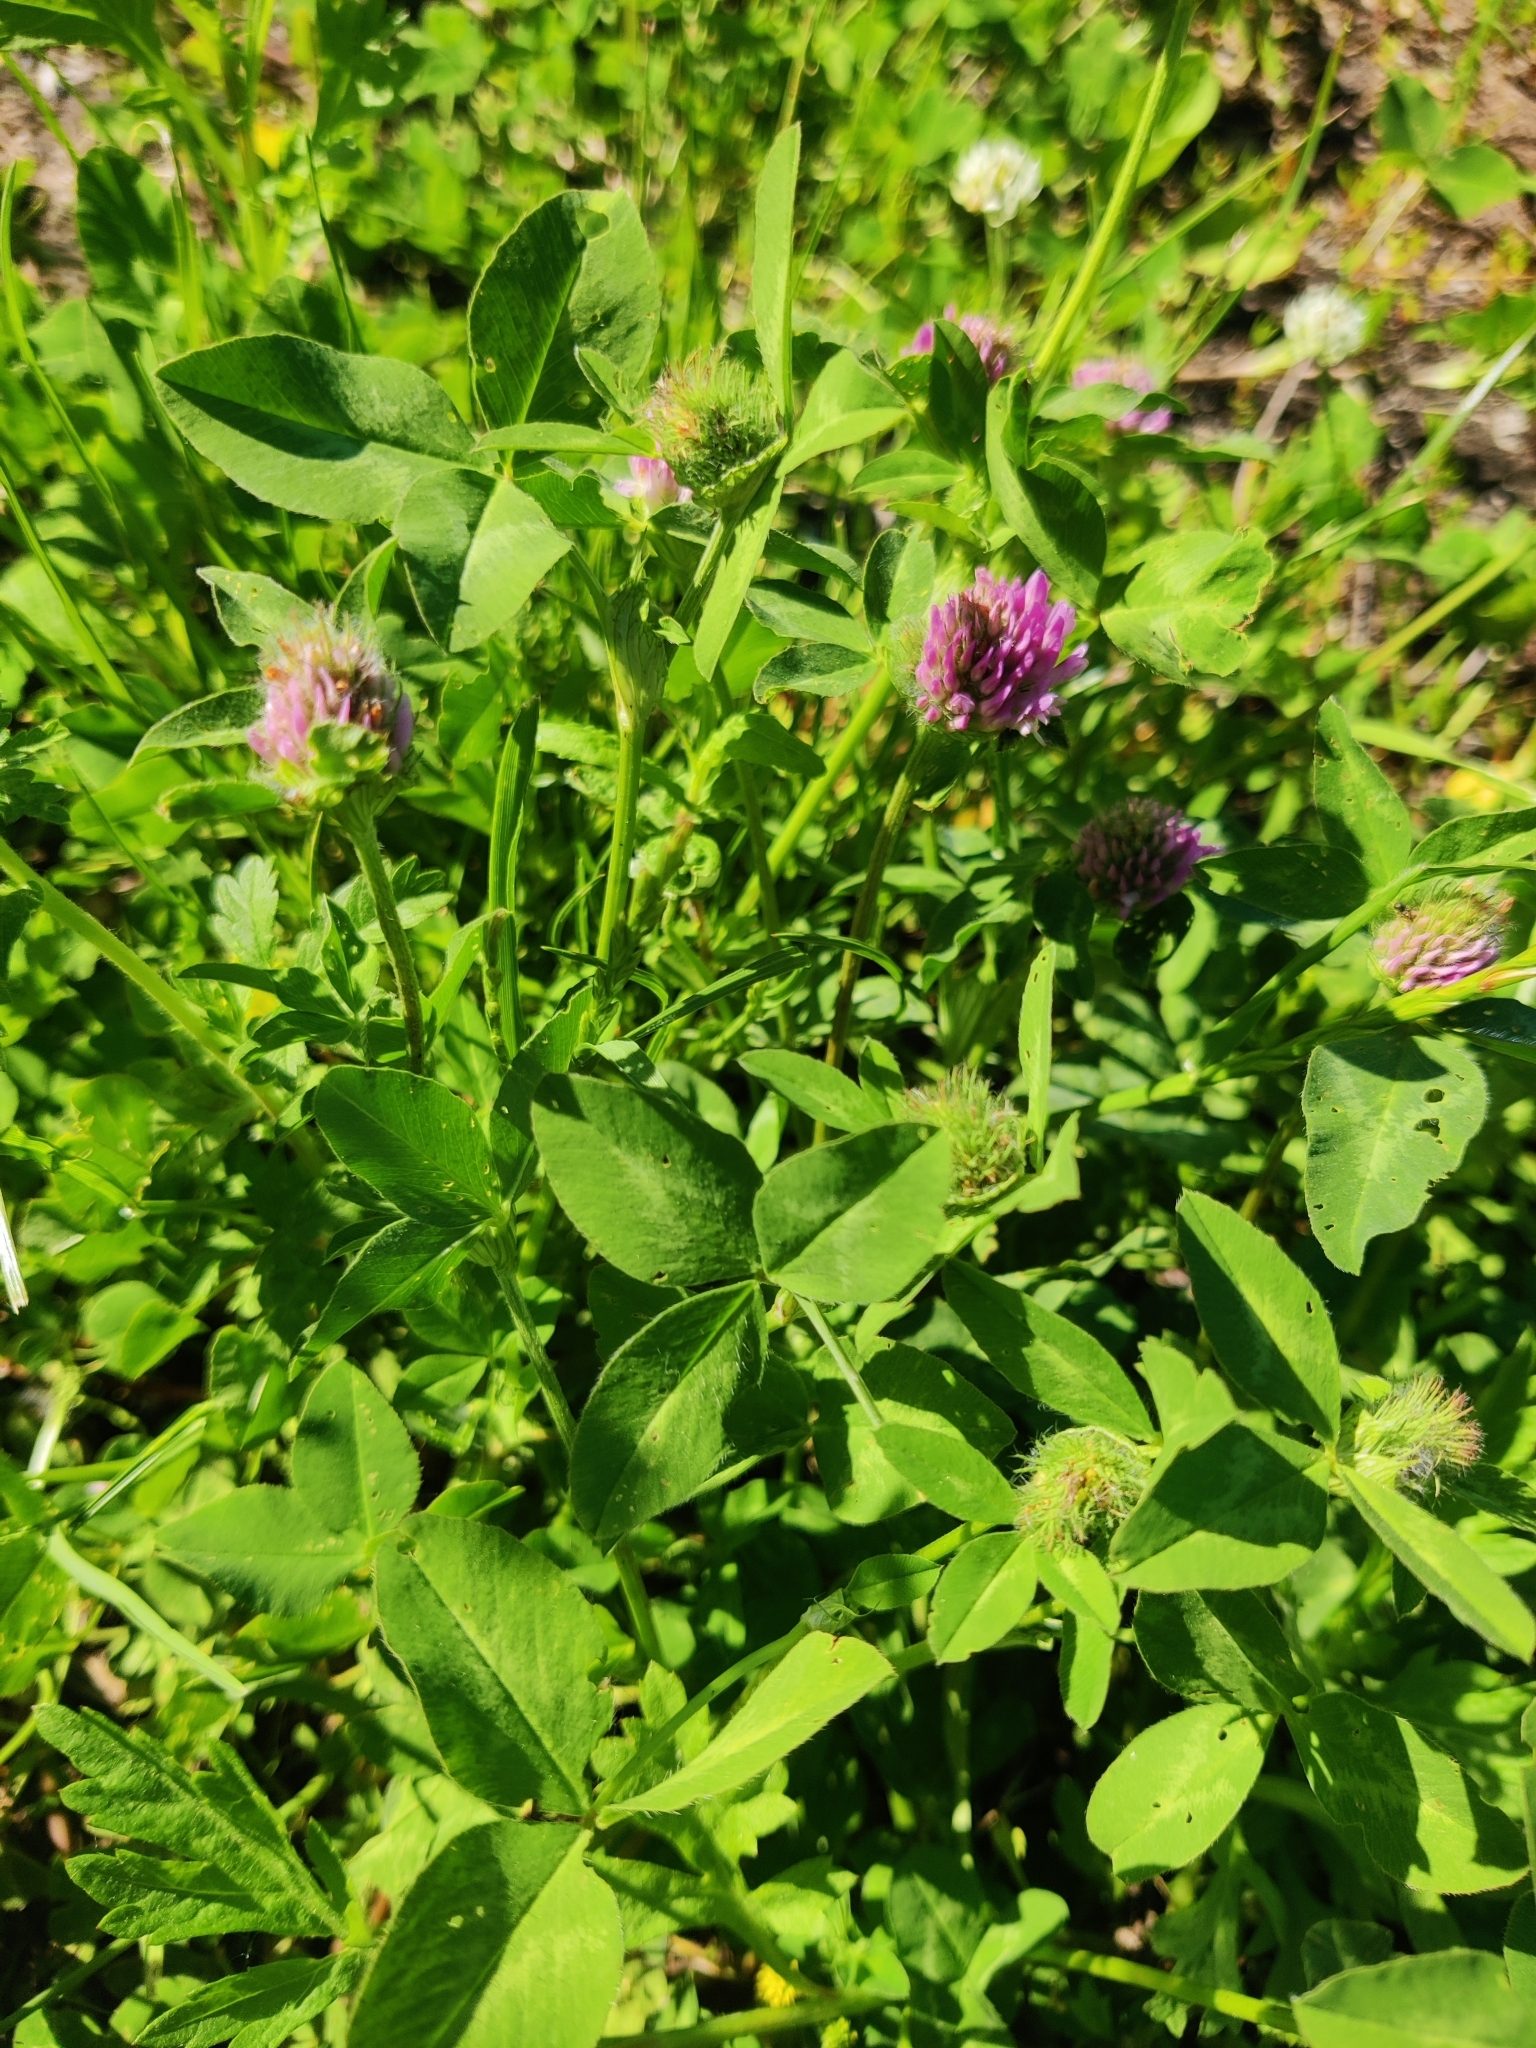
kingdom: Plantae
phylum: Tracheophyta
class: Magnoliopsida
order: Fabales
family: Fabaceae
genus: Trifolium
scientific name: Trifolium pratense
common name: Red clover
